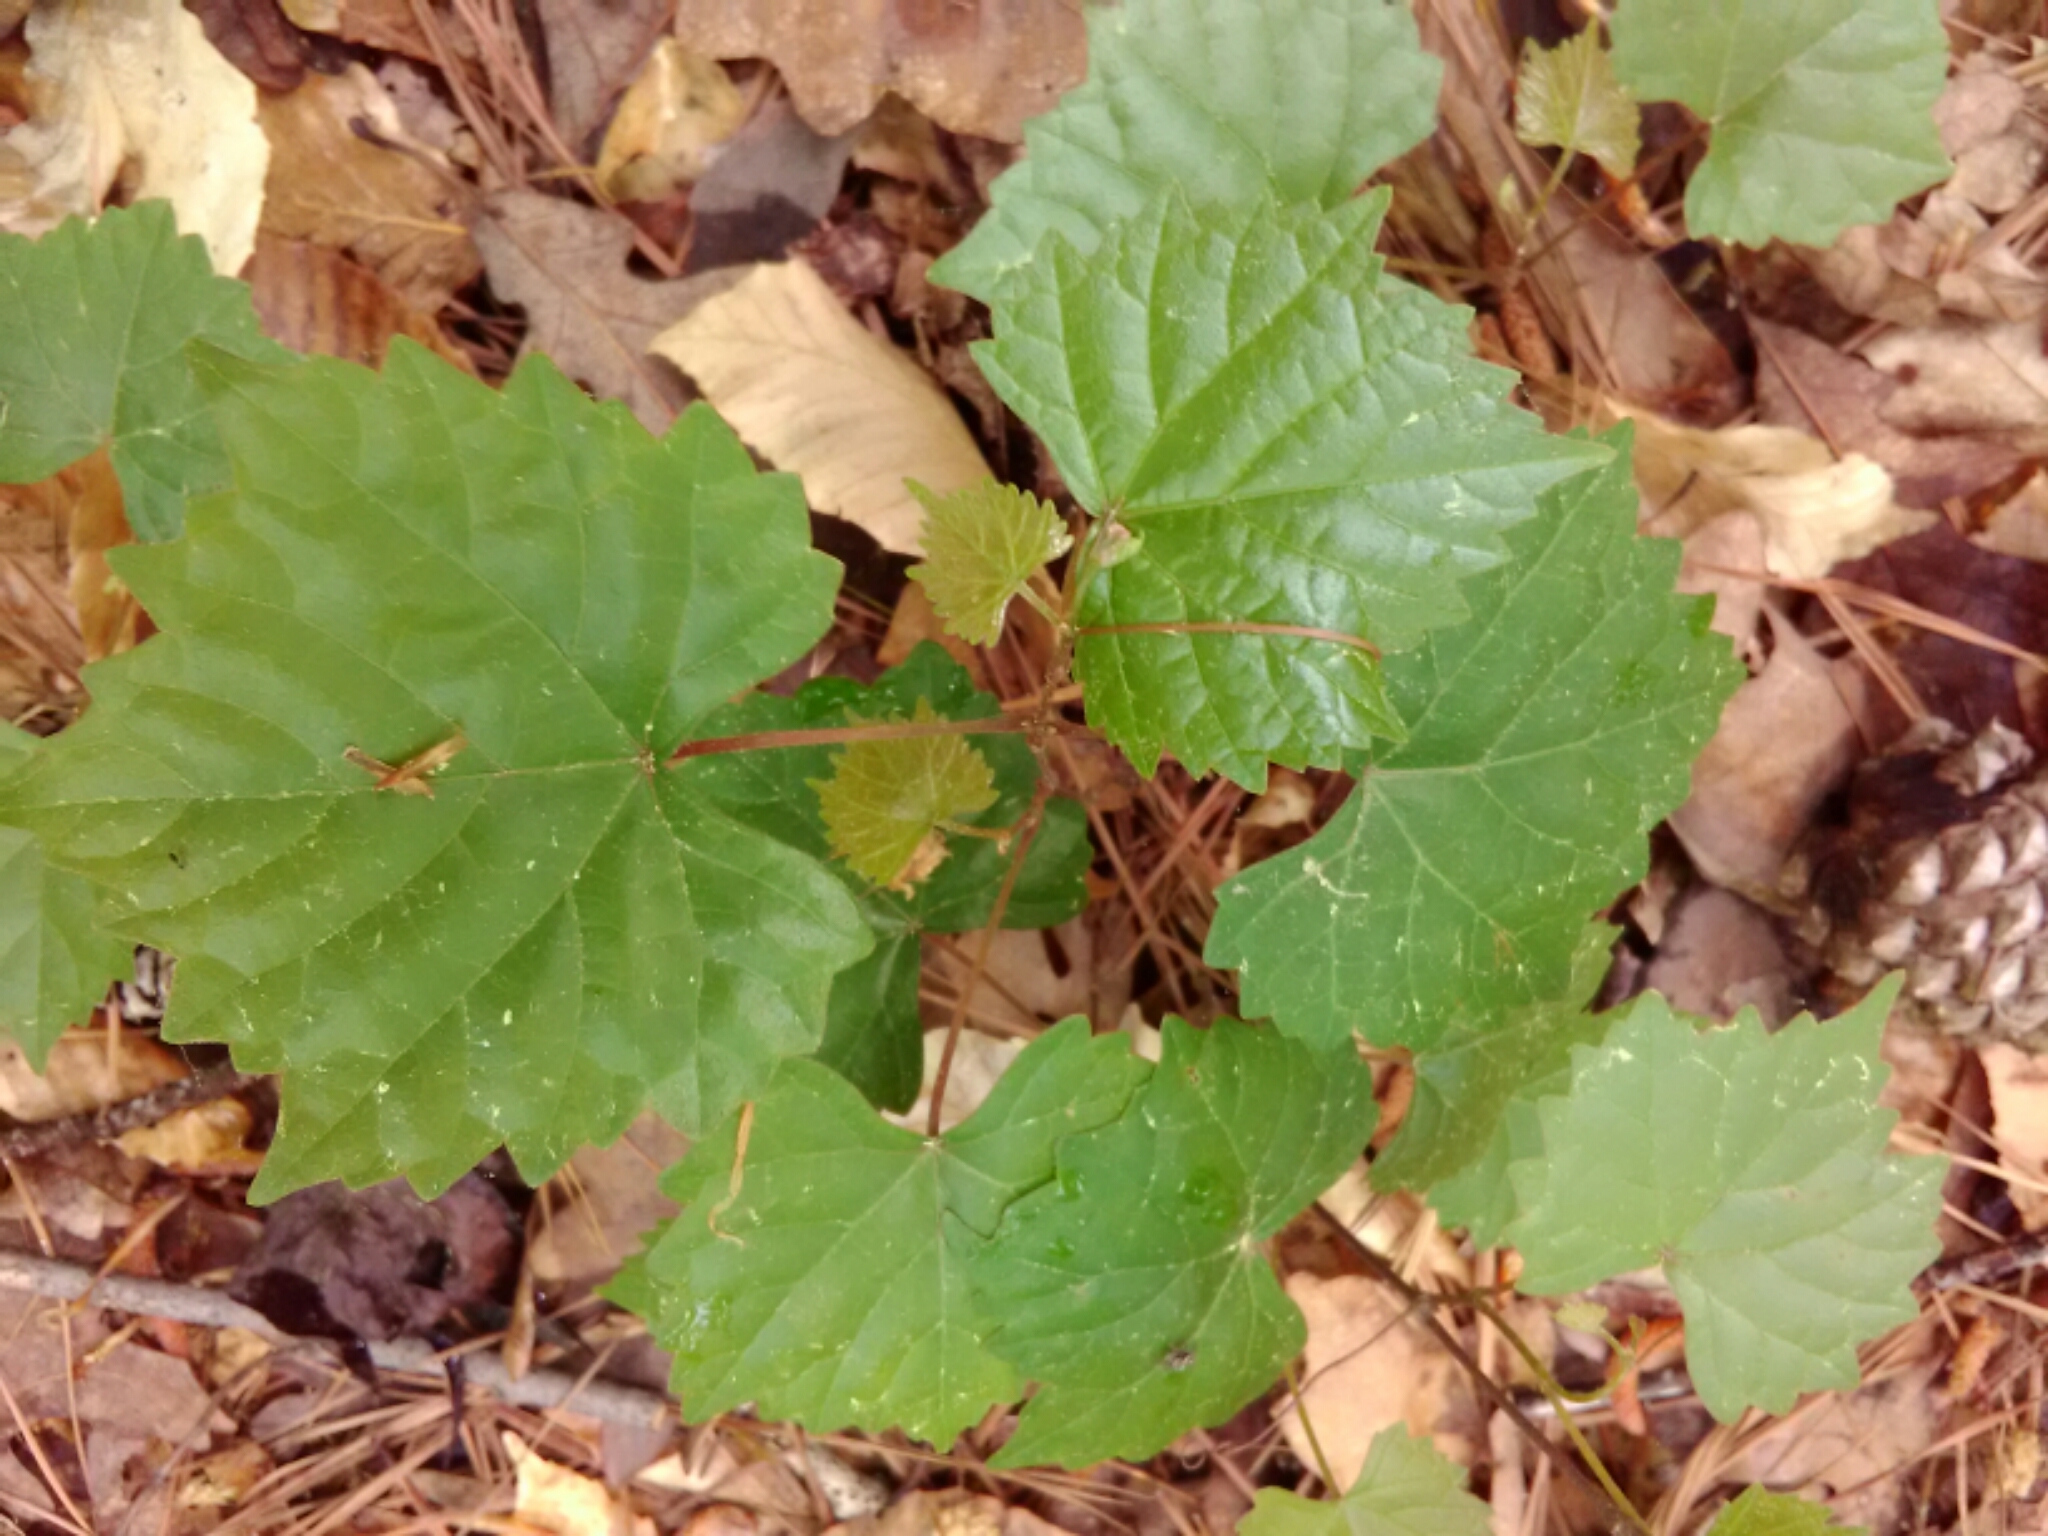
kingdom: Plantae
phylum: Tracheophyta
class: Magnoliopsida
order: Vitales
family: Vitaceae
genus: Vitis
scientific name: Vitis rotundifolia
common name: Muscadine grape
